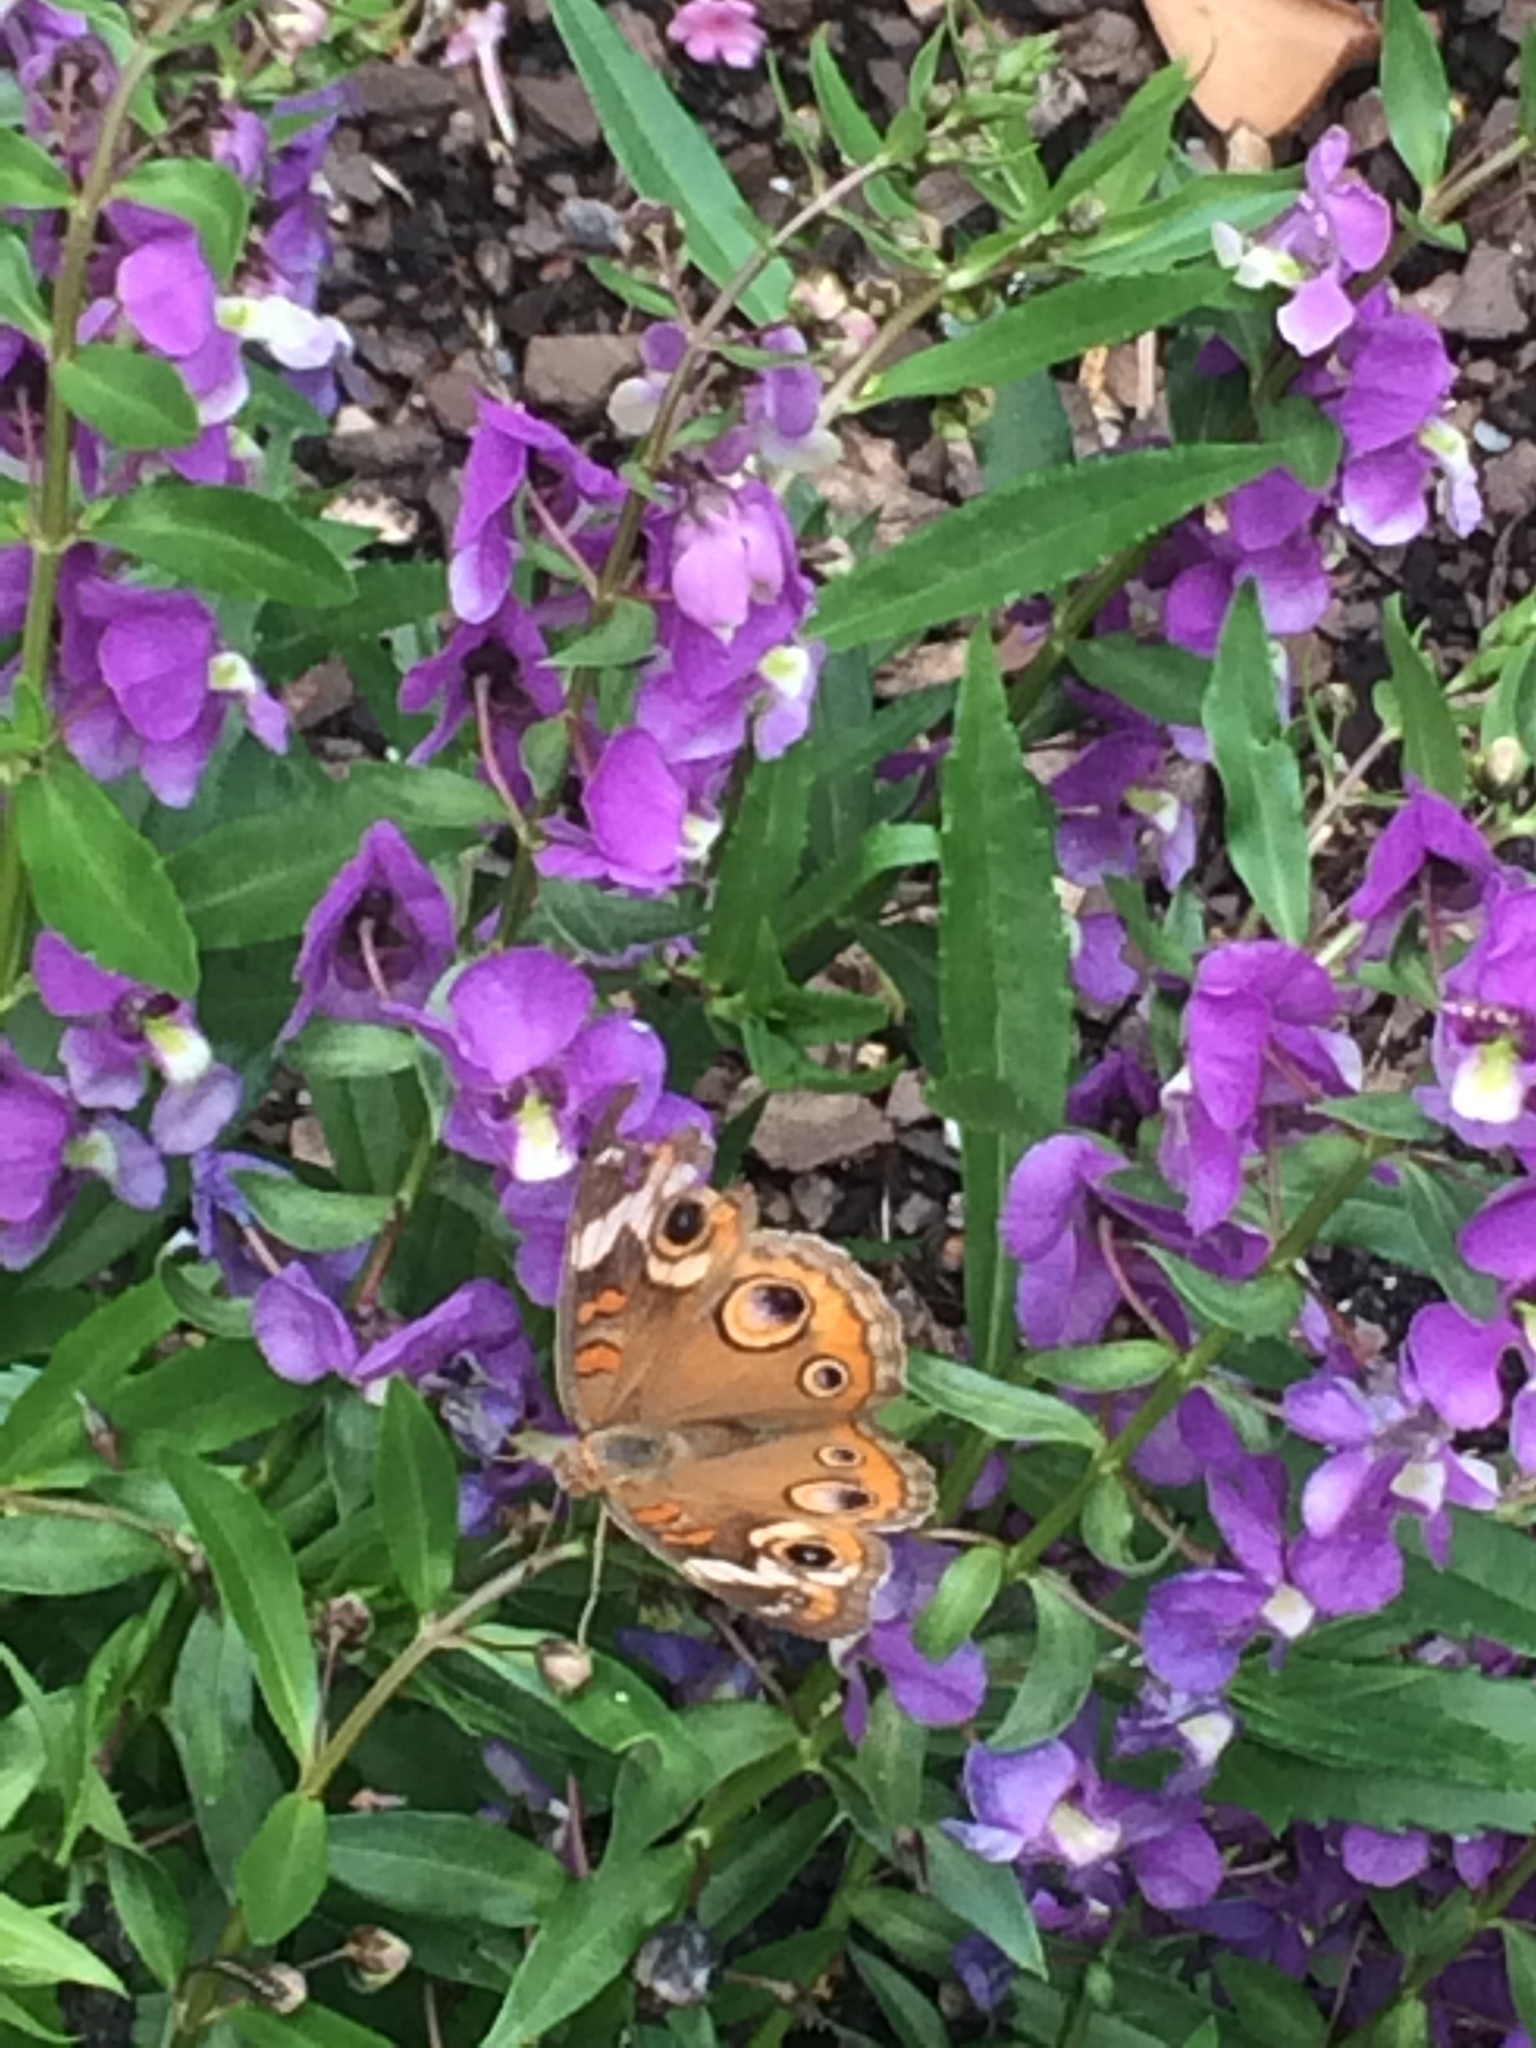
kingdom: Animalia
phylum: Arthropoda
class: Insecta
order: Lepidoptera
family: Nymphalidae
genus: Junonia
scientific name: Junonia coenia
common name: Common buckeye
